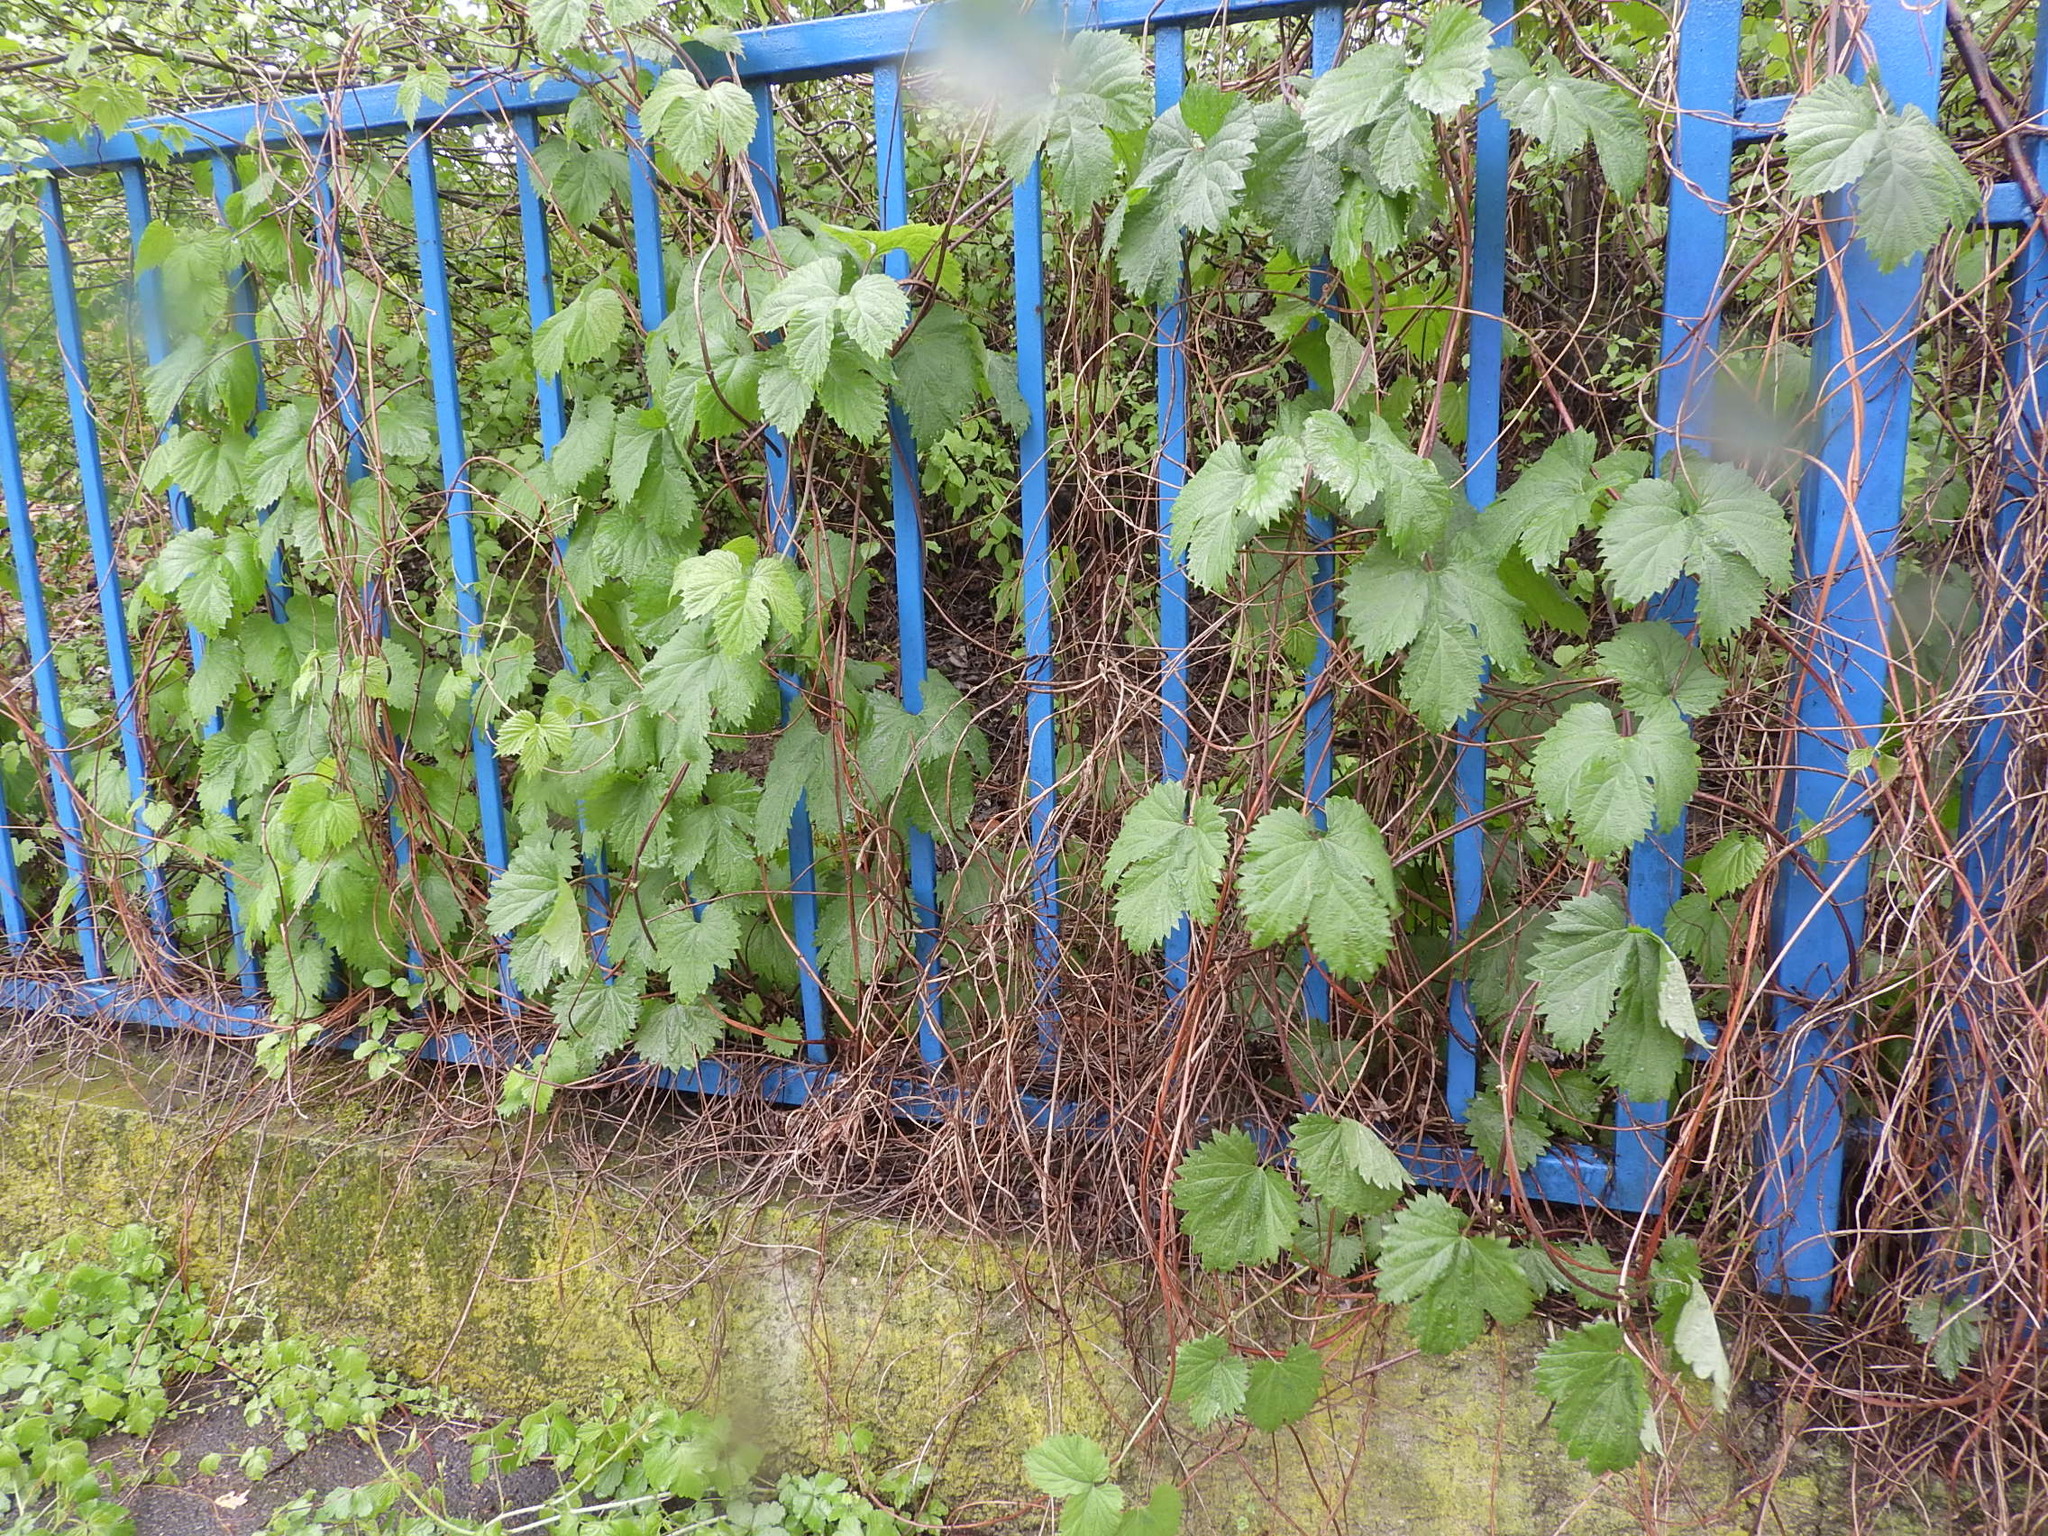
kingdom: Plantae
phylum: Tracheophyta
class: Magnoliopsida
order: Rosales
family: Cannabaceae
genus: Humulus
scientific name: Humulus lupulus
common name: Hop
